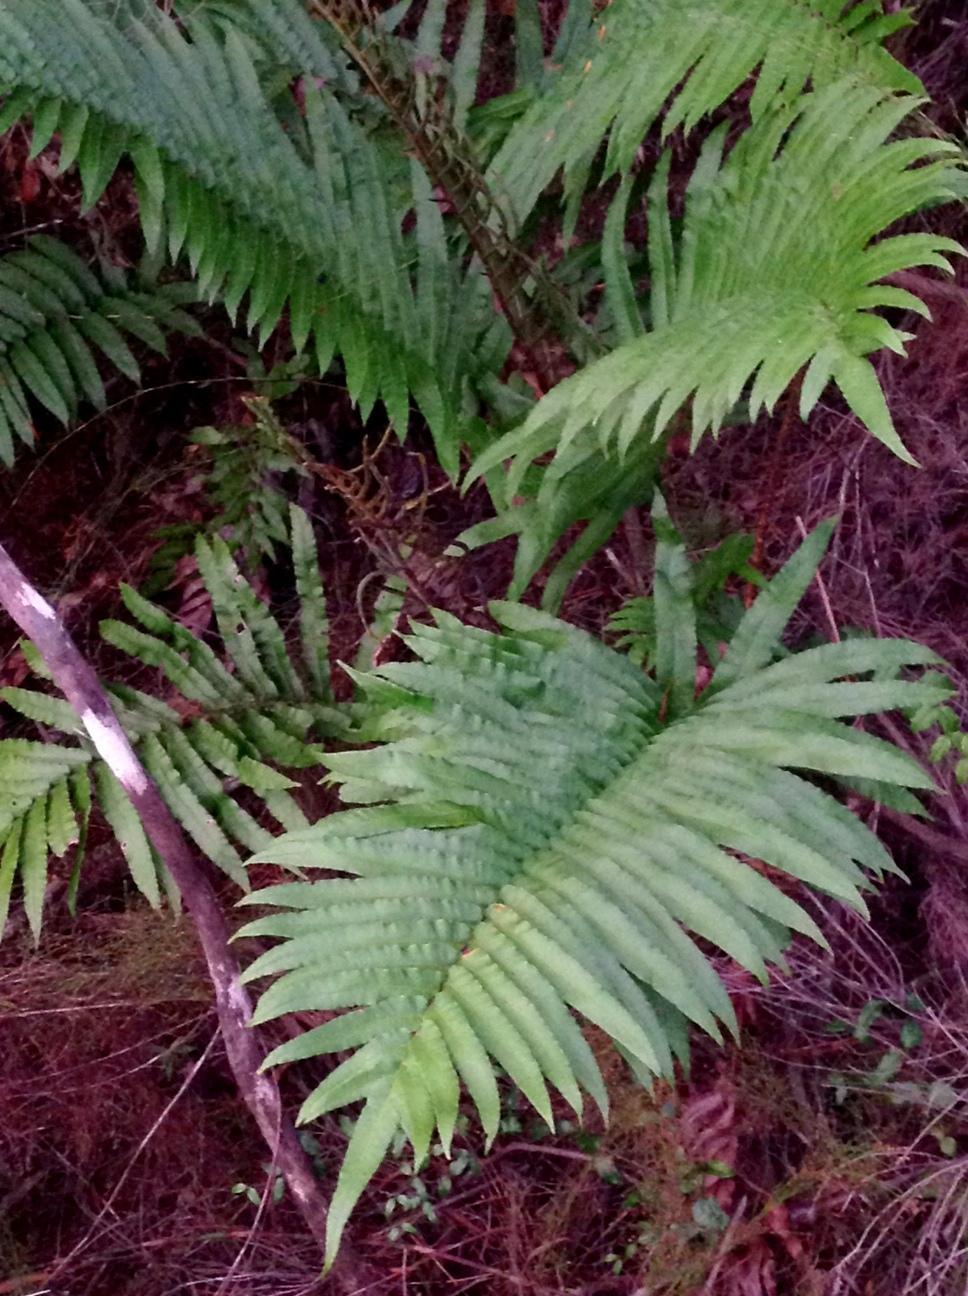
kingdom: Plantae
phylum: Tracheophyta
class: Polypodiopsida
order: Polypodiales
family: Blechnaceae
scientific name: Blechnaceae
